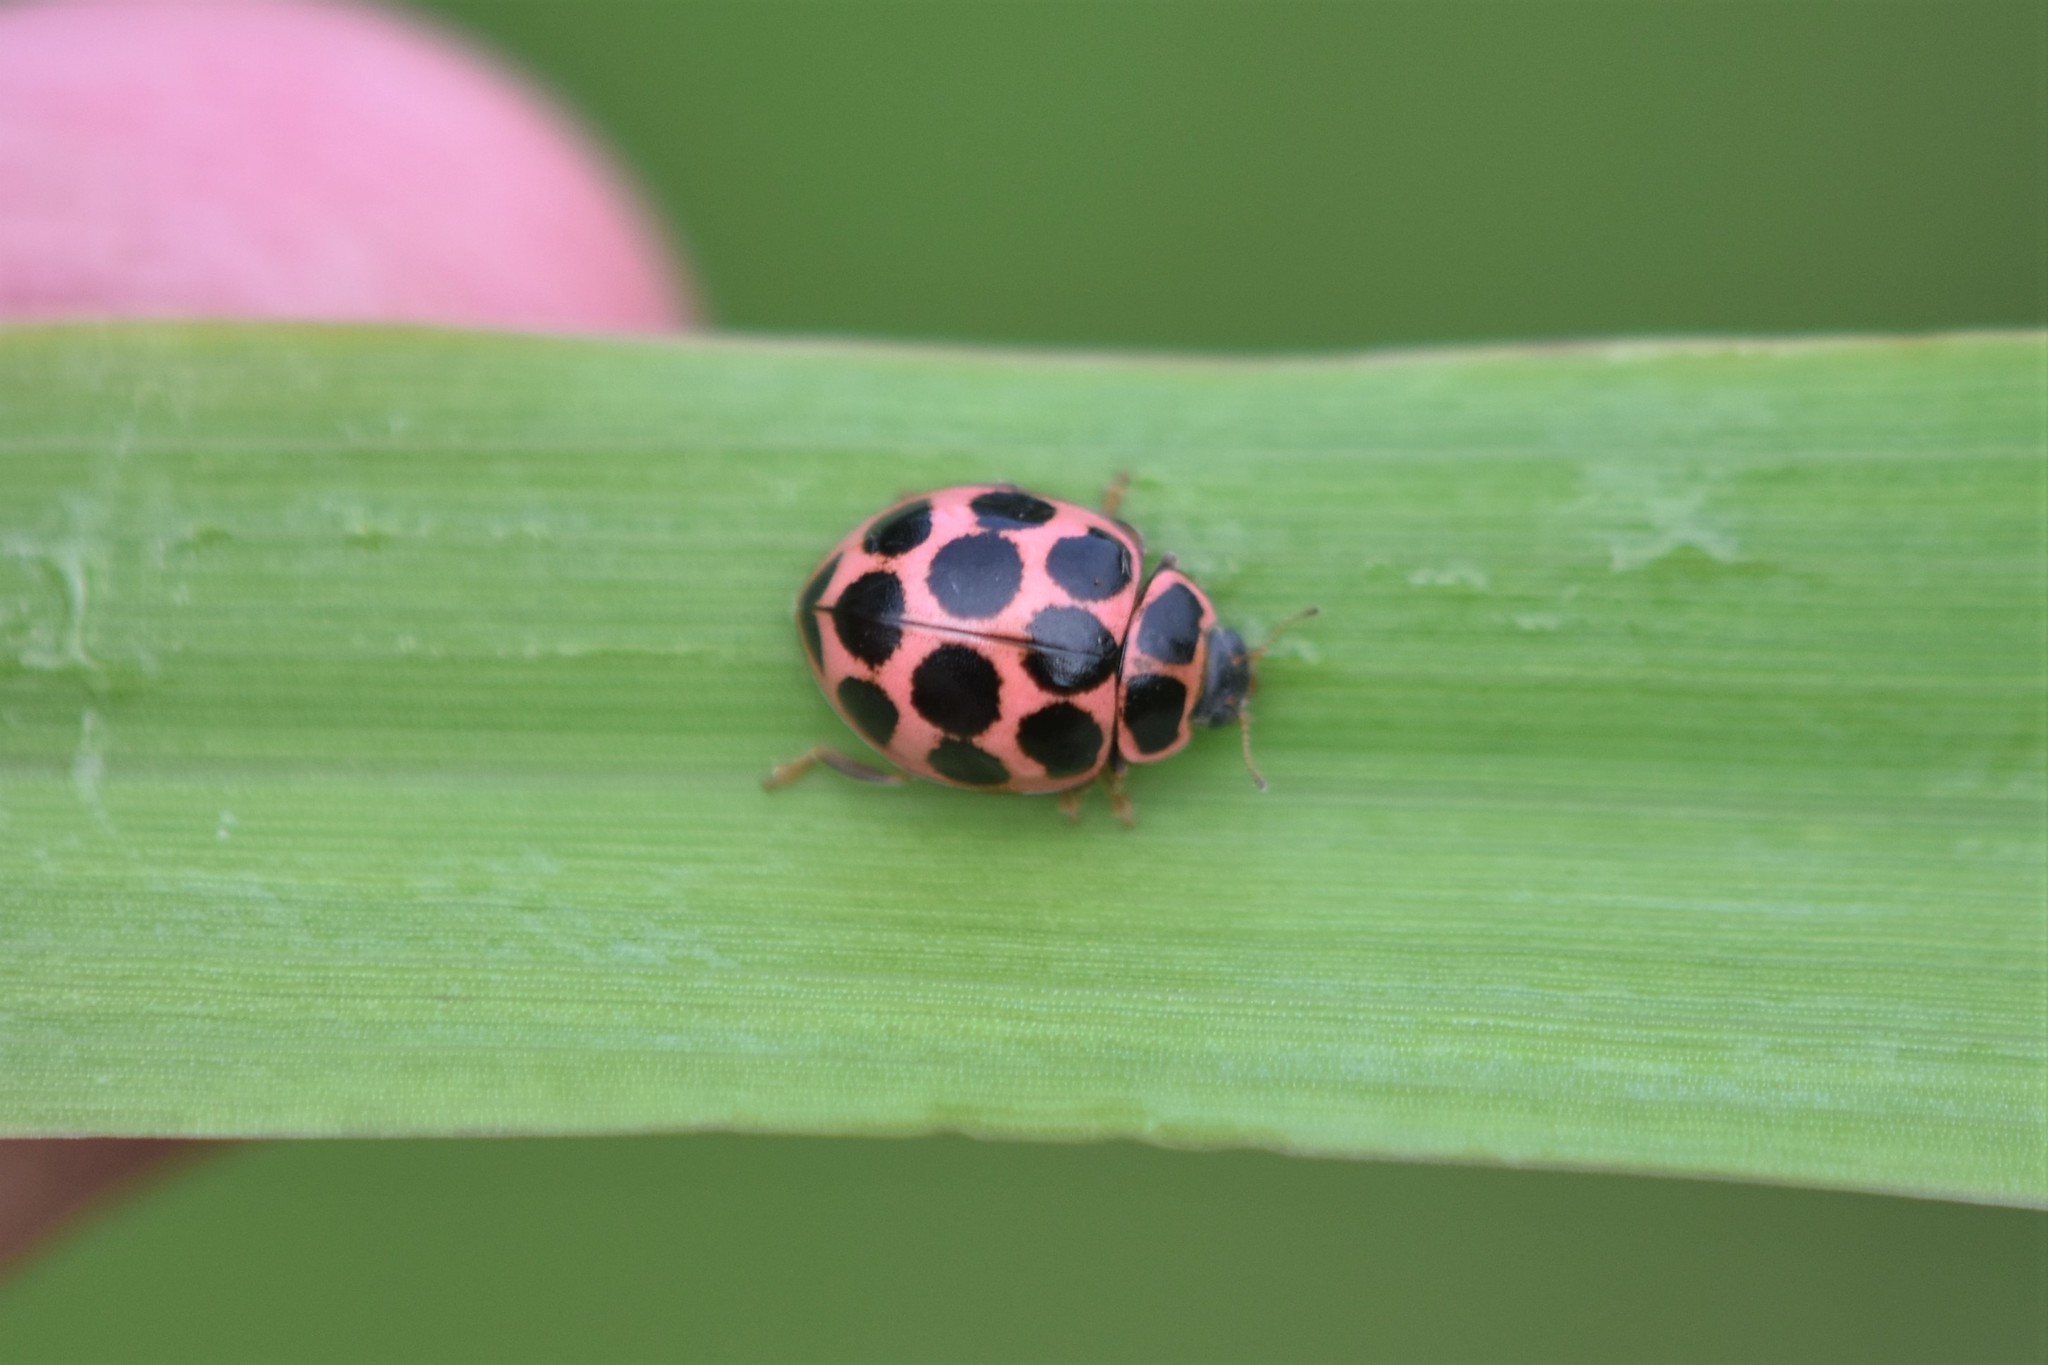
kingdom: Animalia
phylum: Arthropoda
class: Insecta
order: Coleoptera
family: Coccinellidae
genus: Calvia
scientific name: Calvia quatuordecimguttata
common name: Cream-spot ladybird
